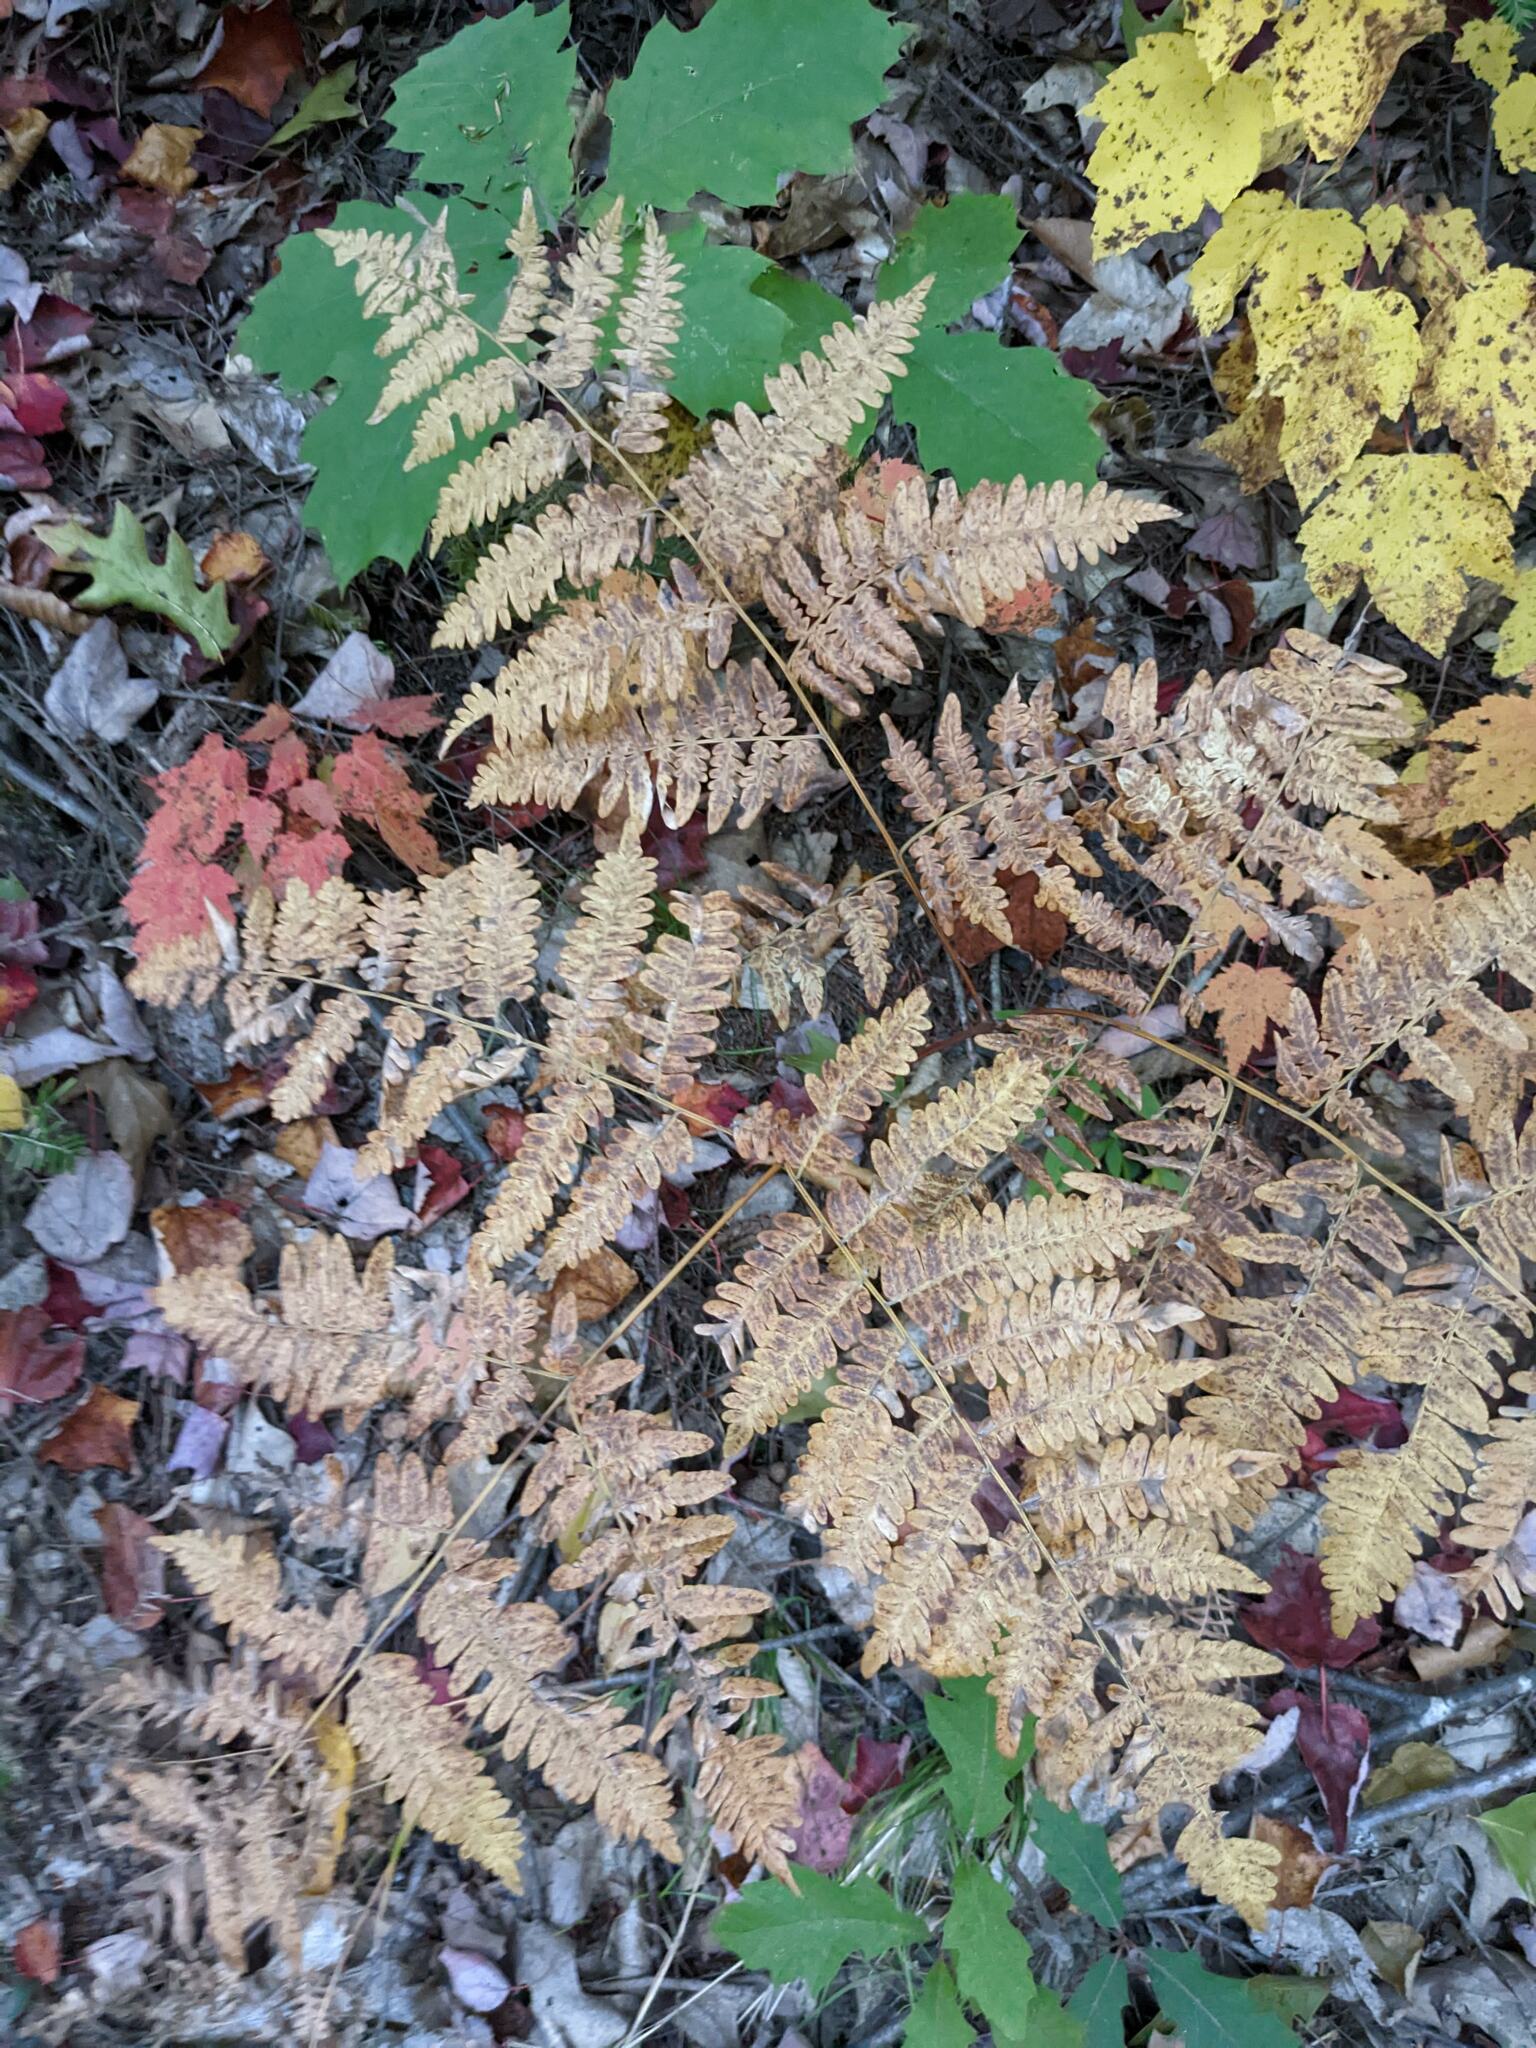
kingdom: Plantae
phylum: Tracheophyta
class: Polypodiopsida
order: Polypodiales
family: Dennstaedtiaceae
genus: Pteridium
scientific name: Pteridium aquilinum
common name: Bracken
